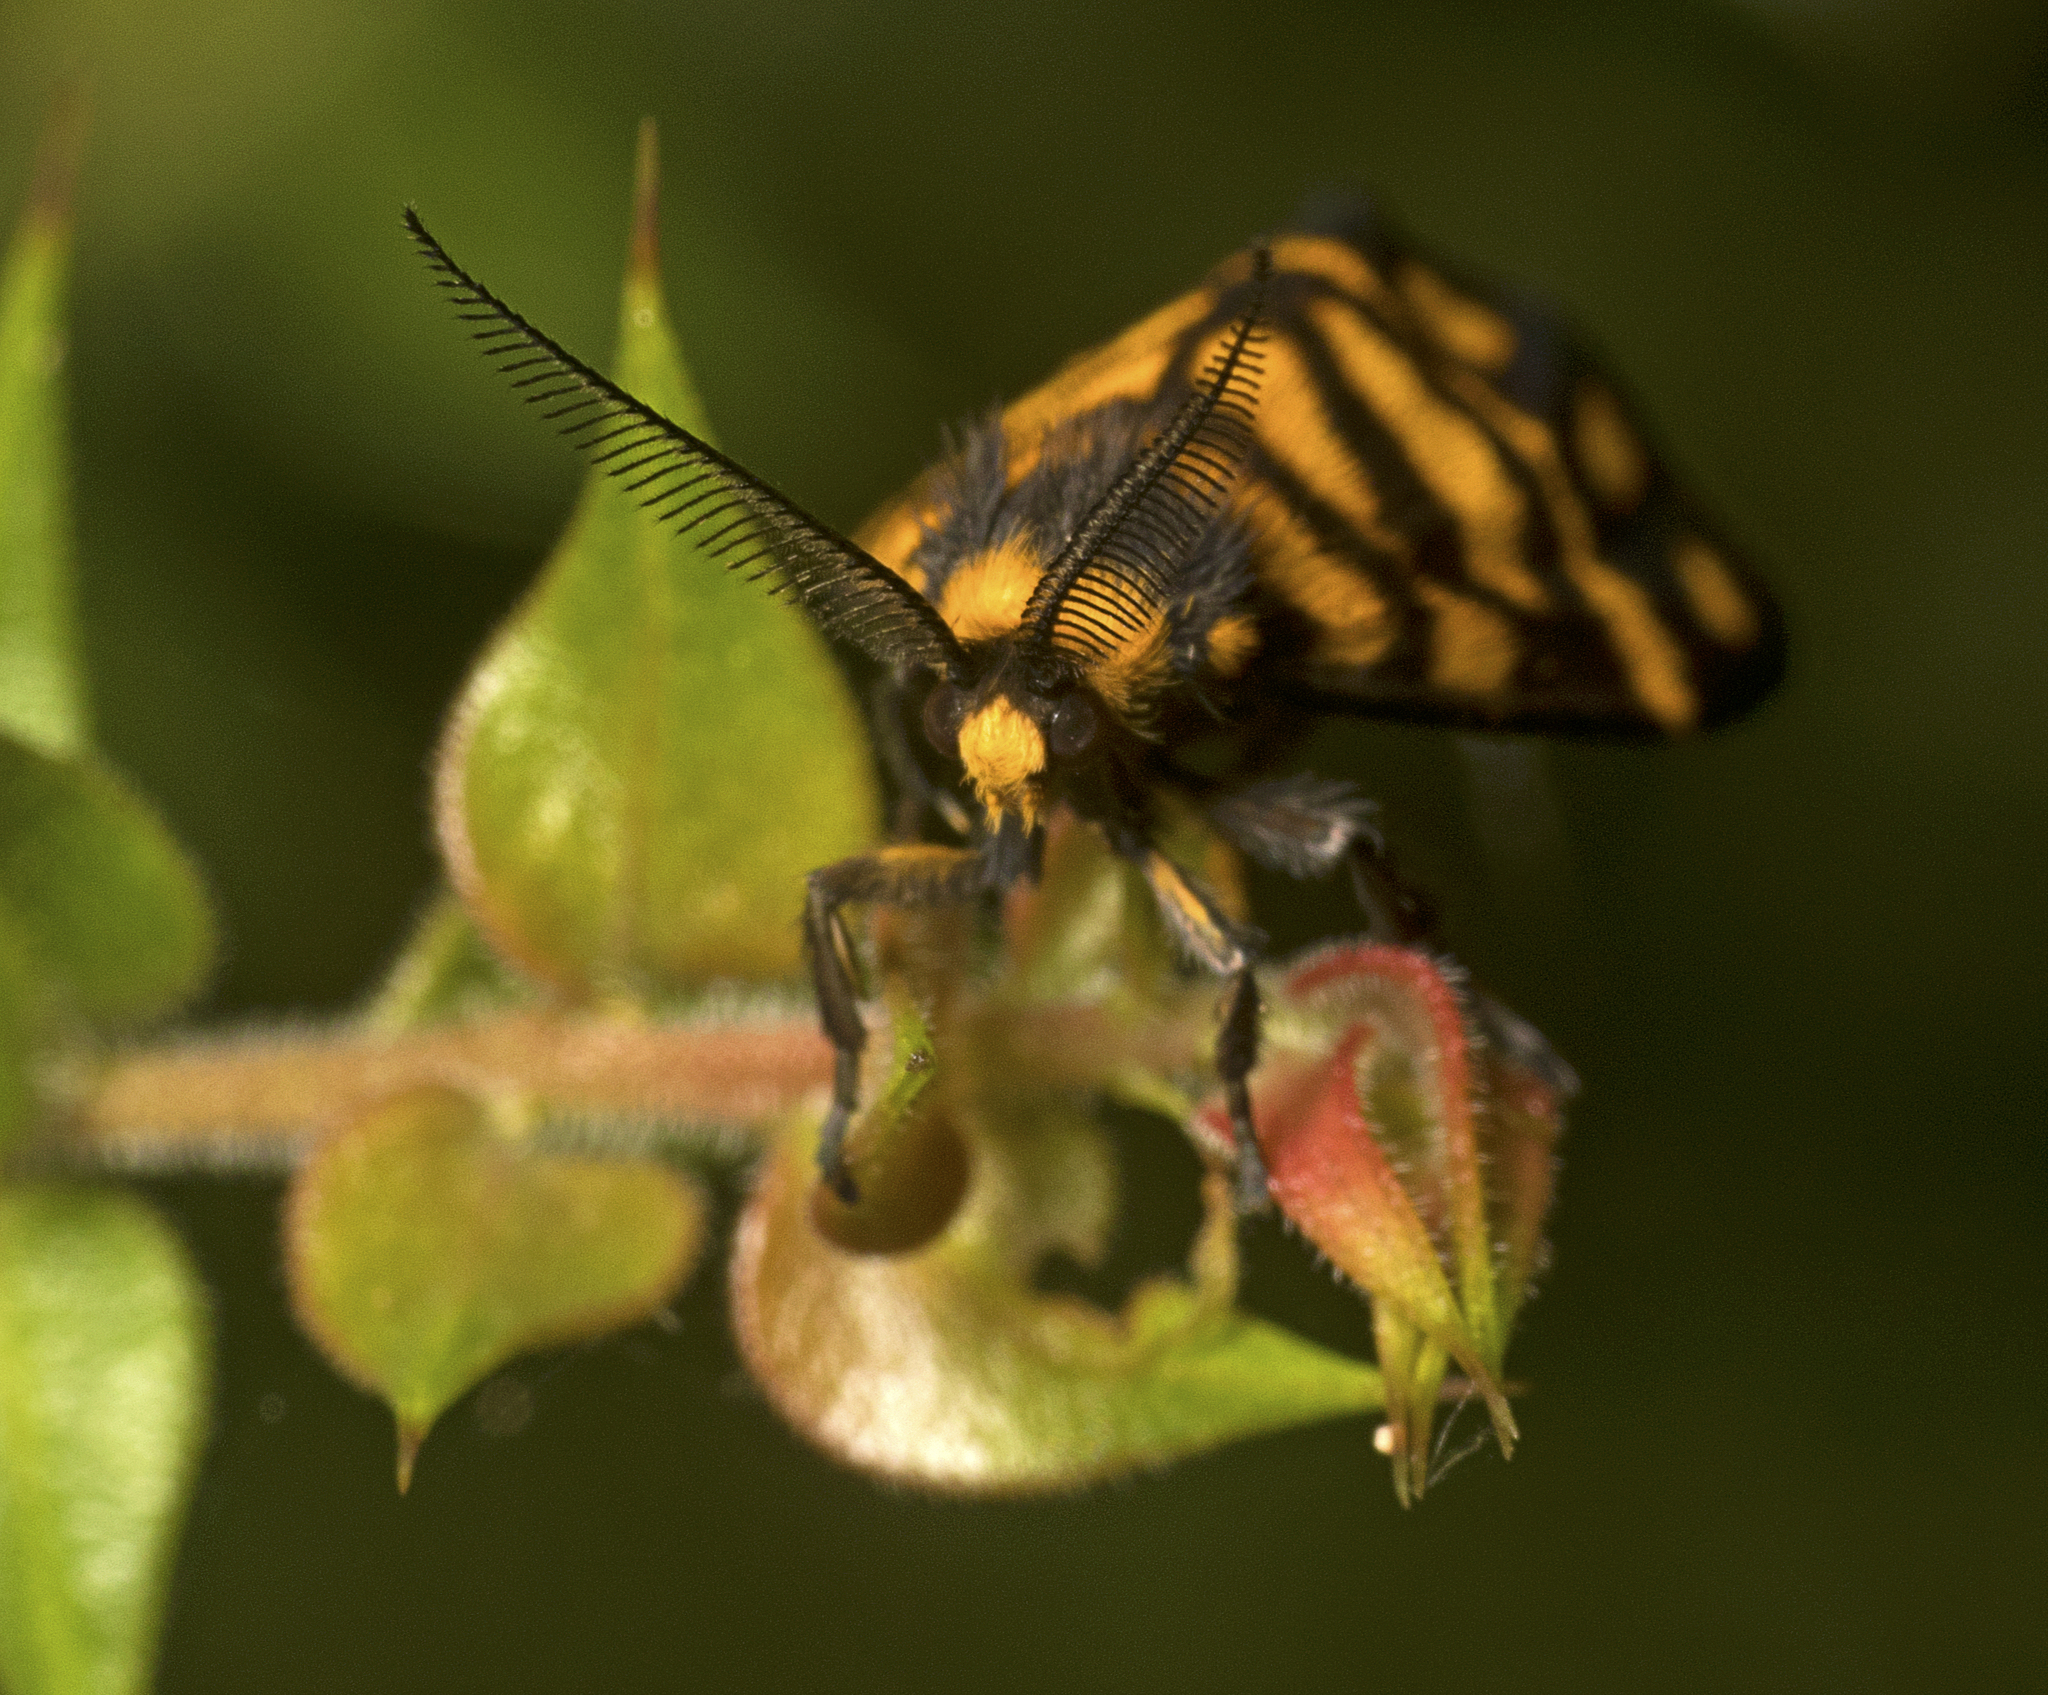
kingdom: Animalia
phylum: Arthropoda
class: Insecta
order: Lepidoptera
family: Erebidae
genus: Asura
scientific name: Asura lydia
